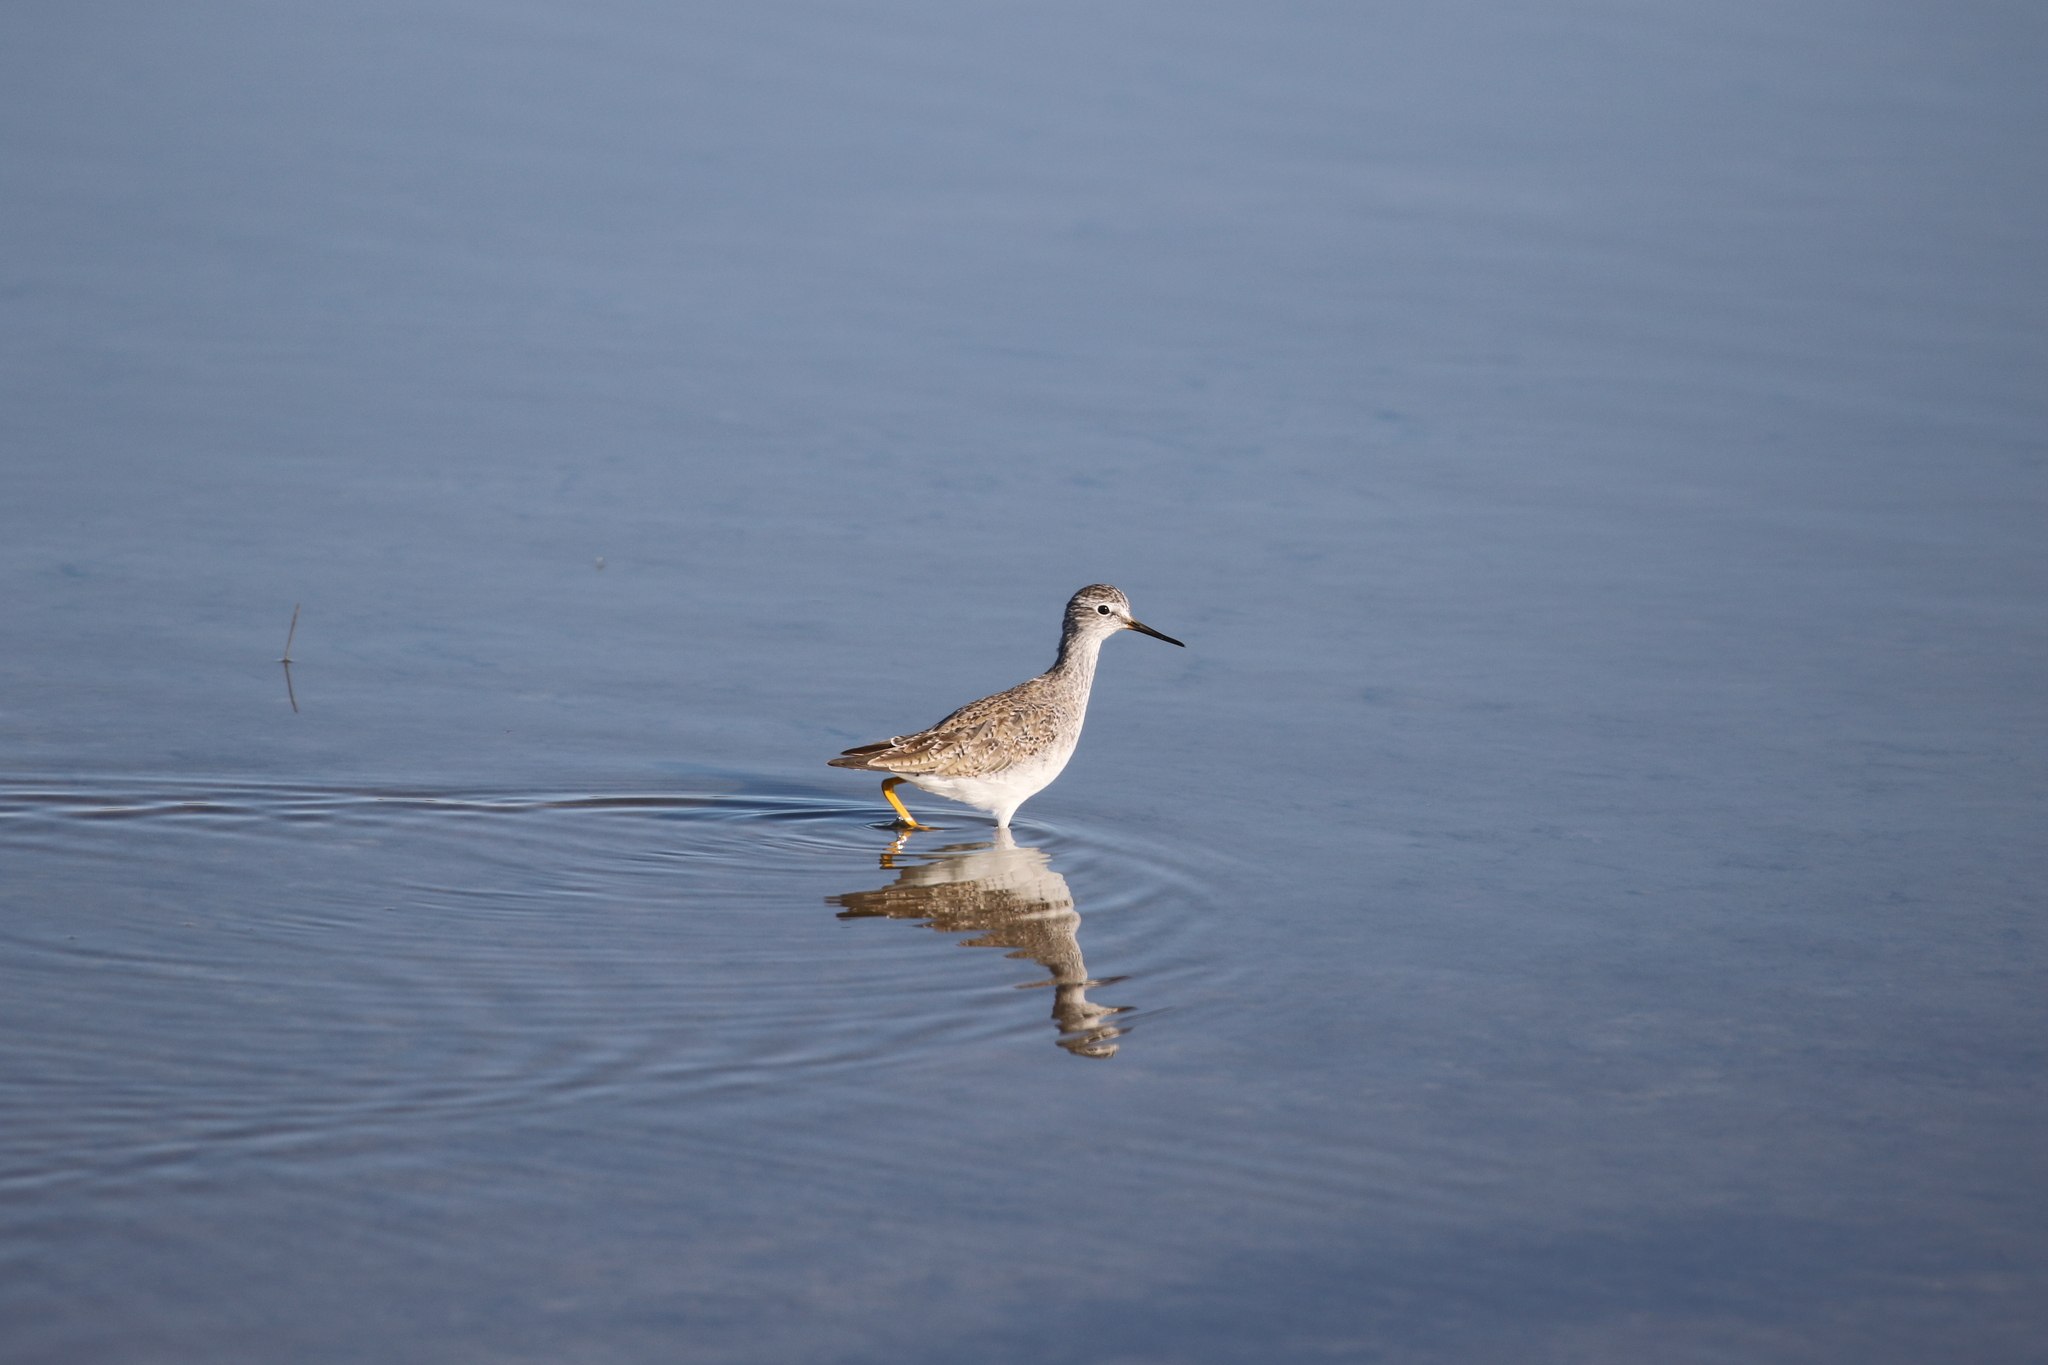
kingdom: Animalia
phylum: Chordata
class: Aves
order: Charadriiformes
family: Scolopacidae
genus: Tringa
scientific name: Tringa flavipes
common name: Lesser yellowlegs
